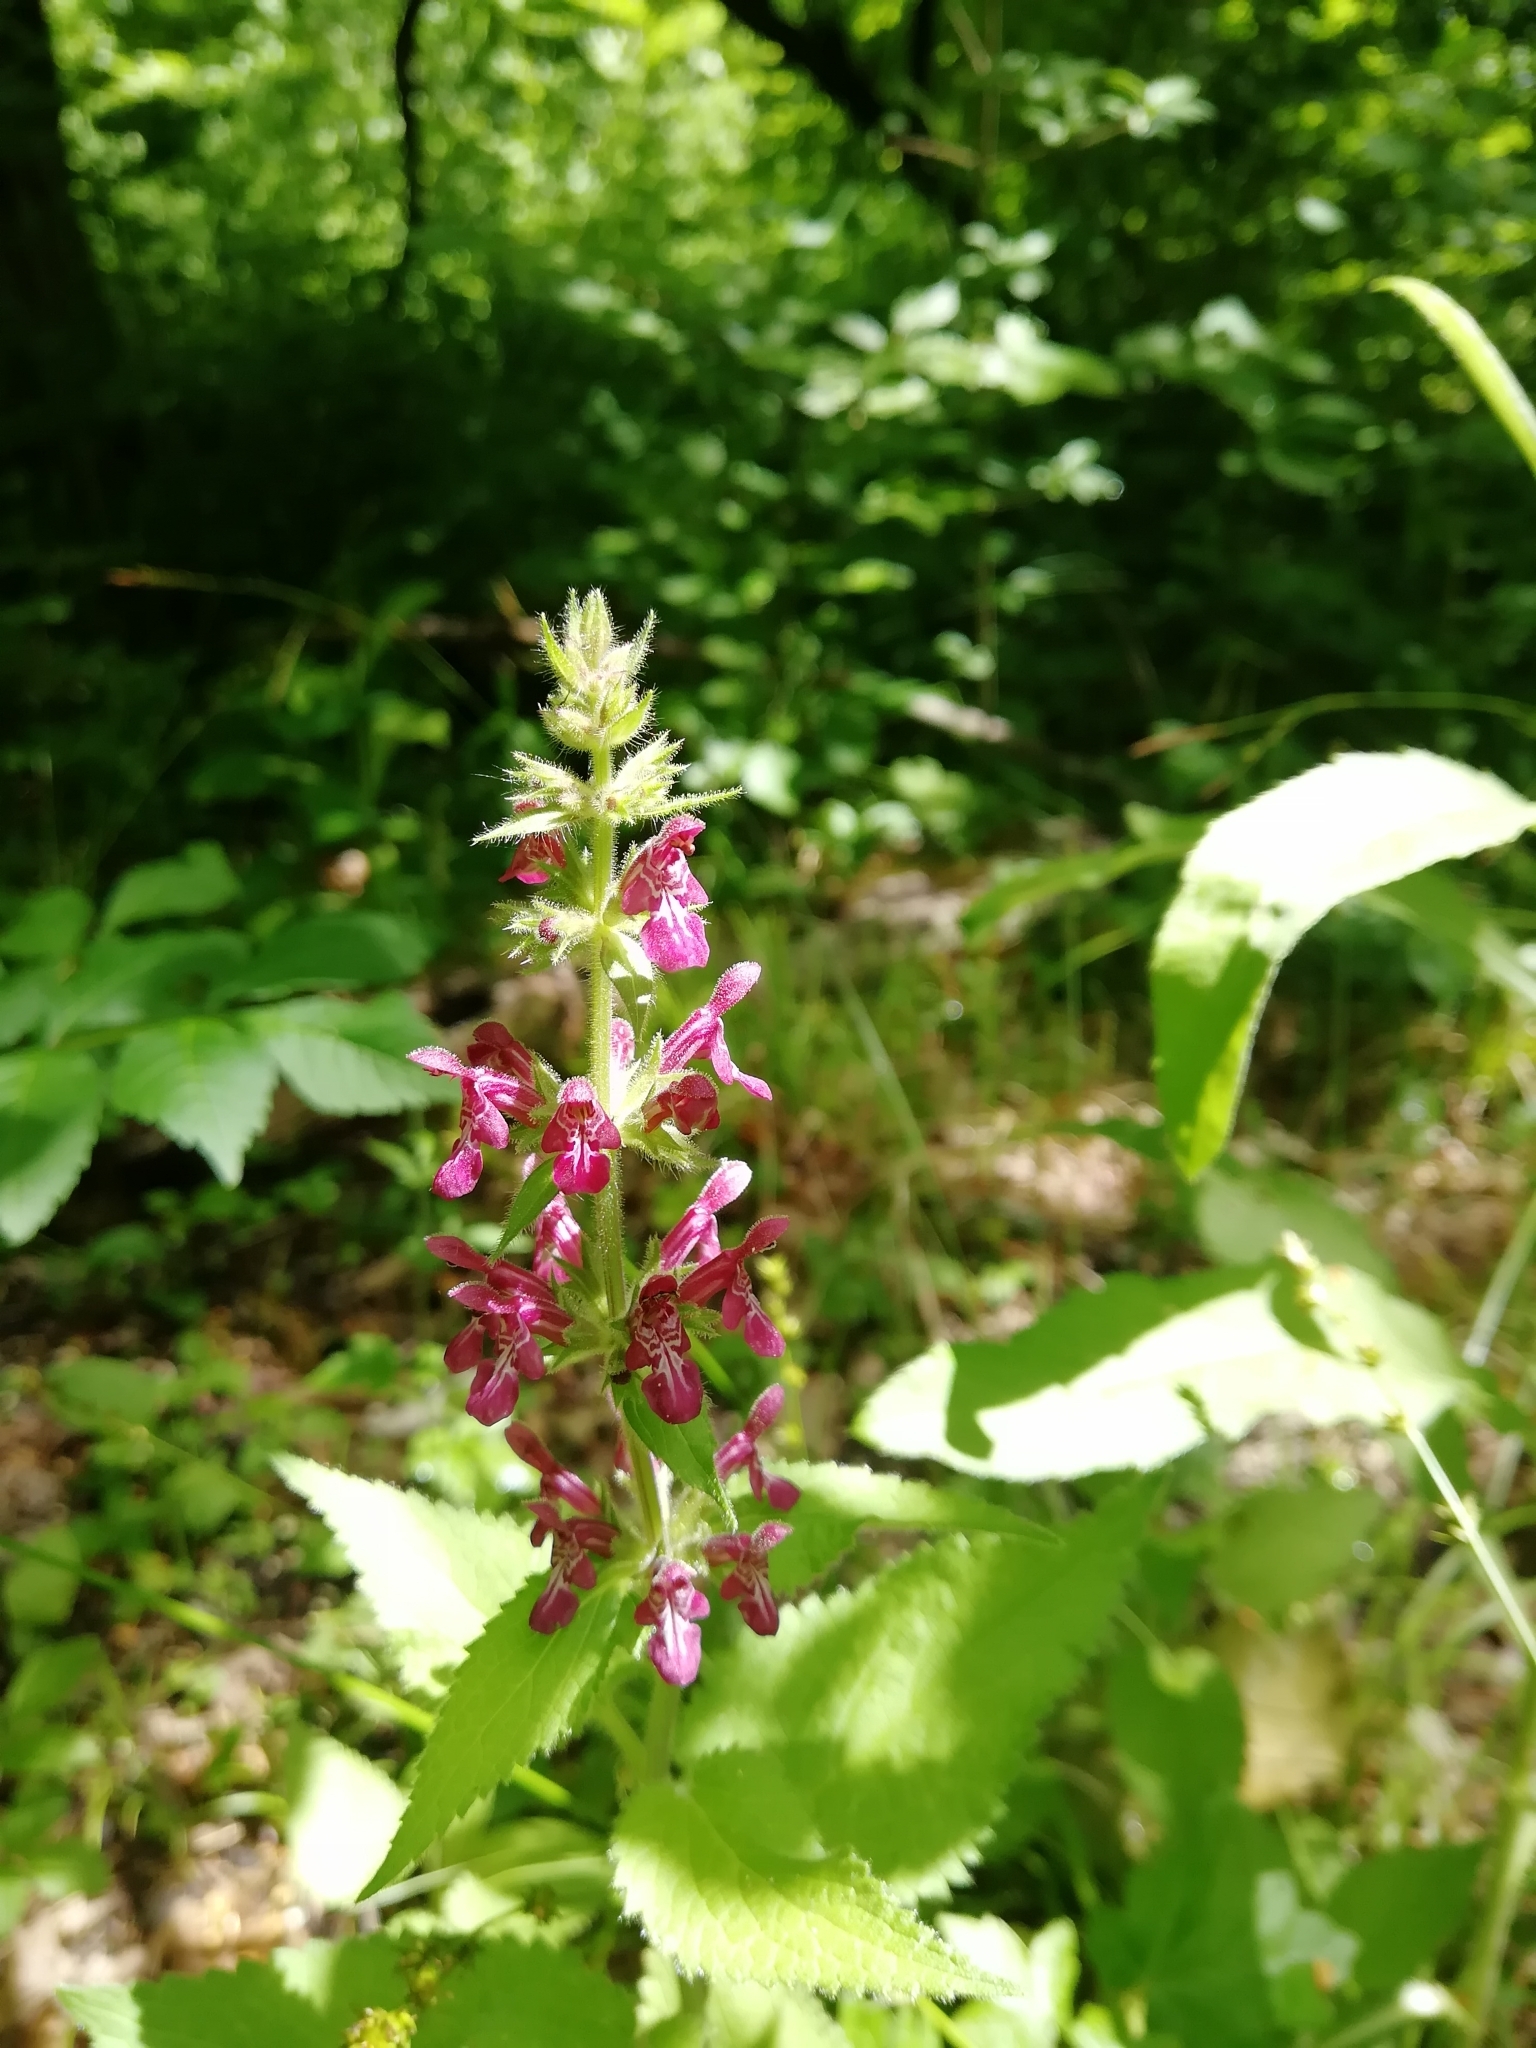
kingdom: Plantae
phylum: Tracheophyta
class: Magnoliopsida
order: Lamiales
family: Lamiaceae
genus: Stachys
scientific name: Stachys sylvatica
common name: Hedge woundwort
